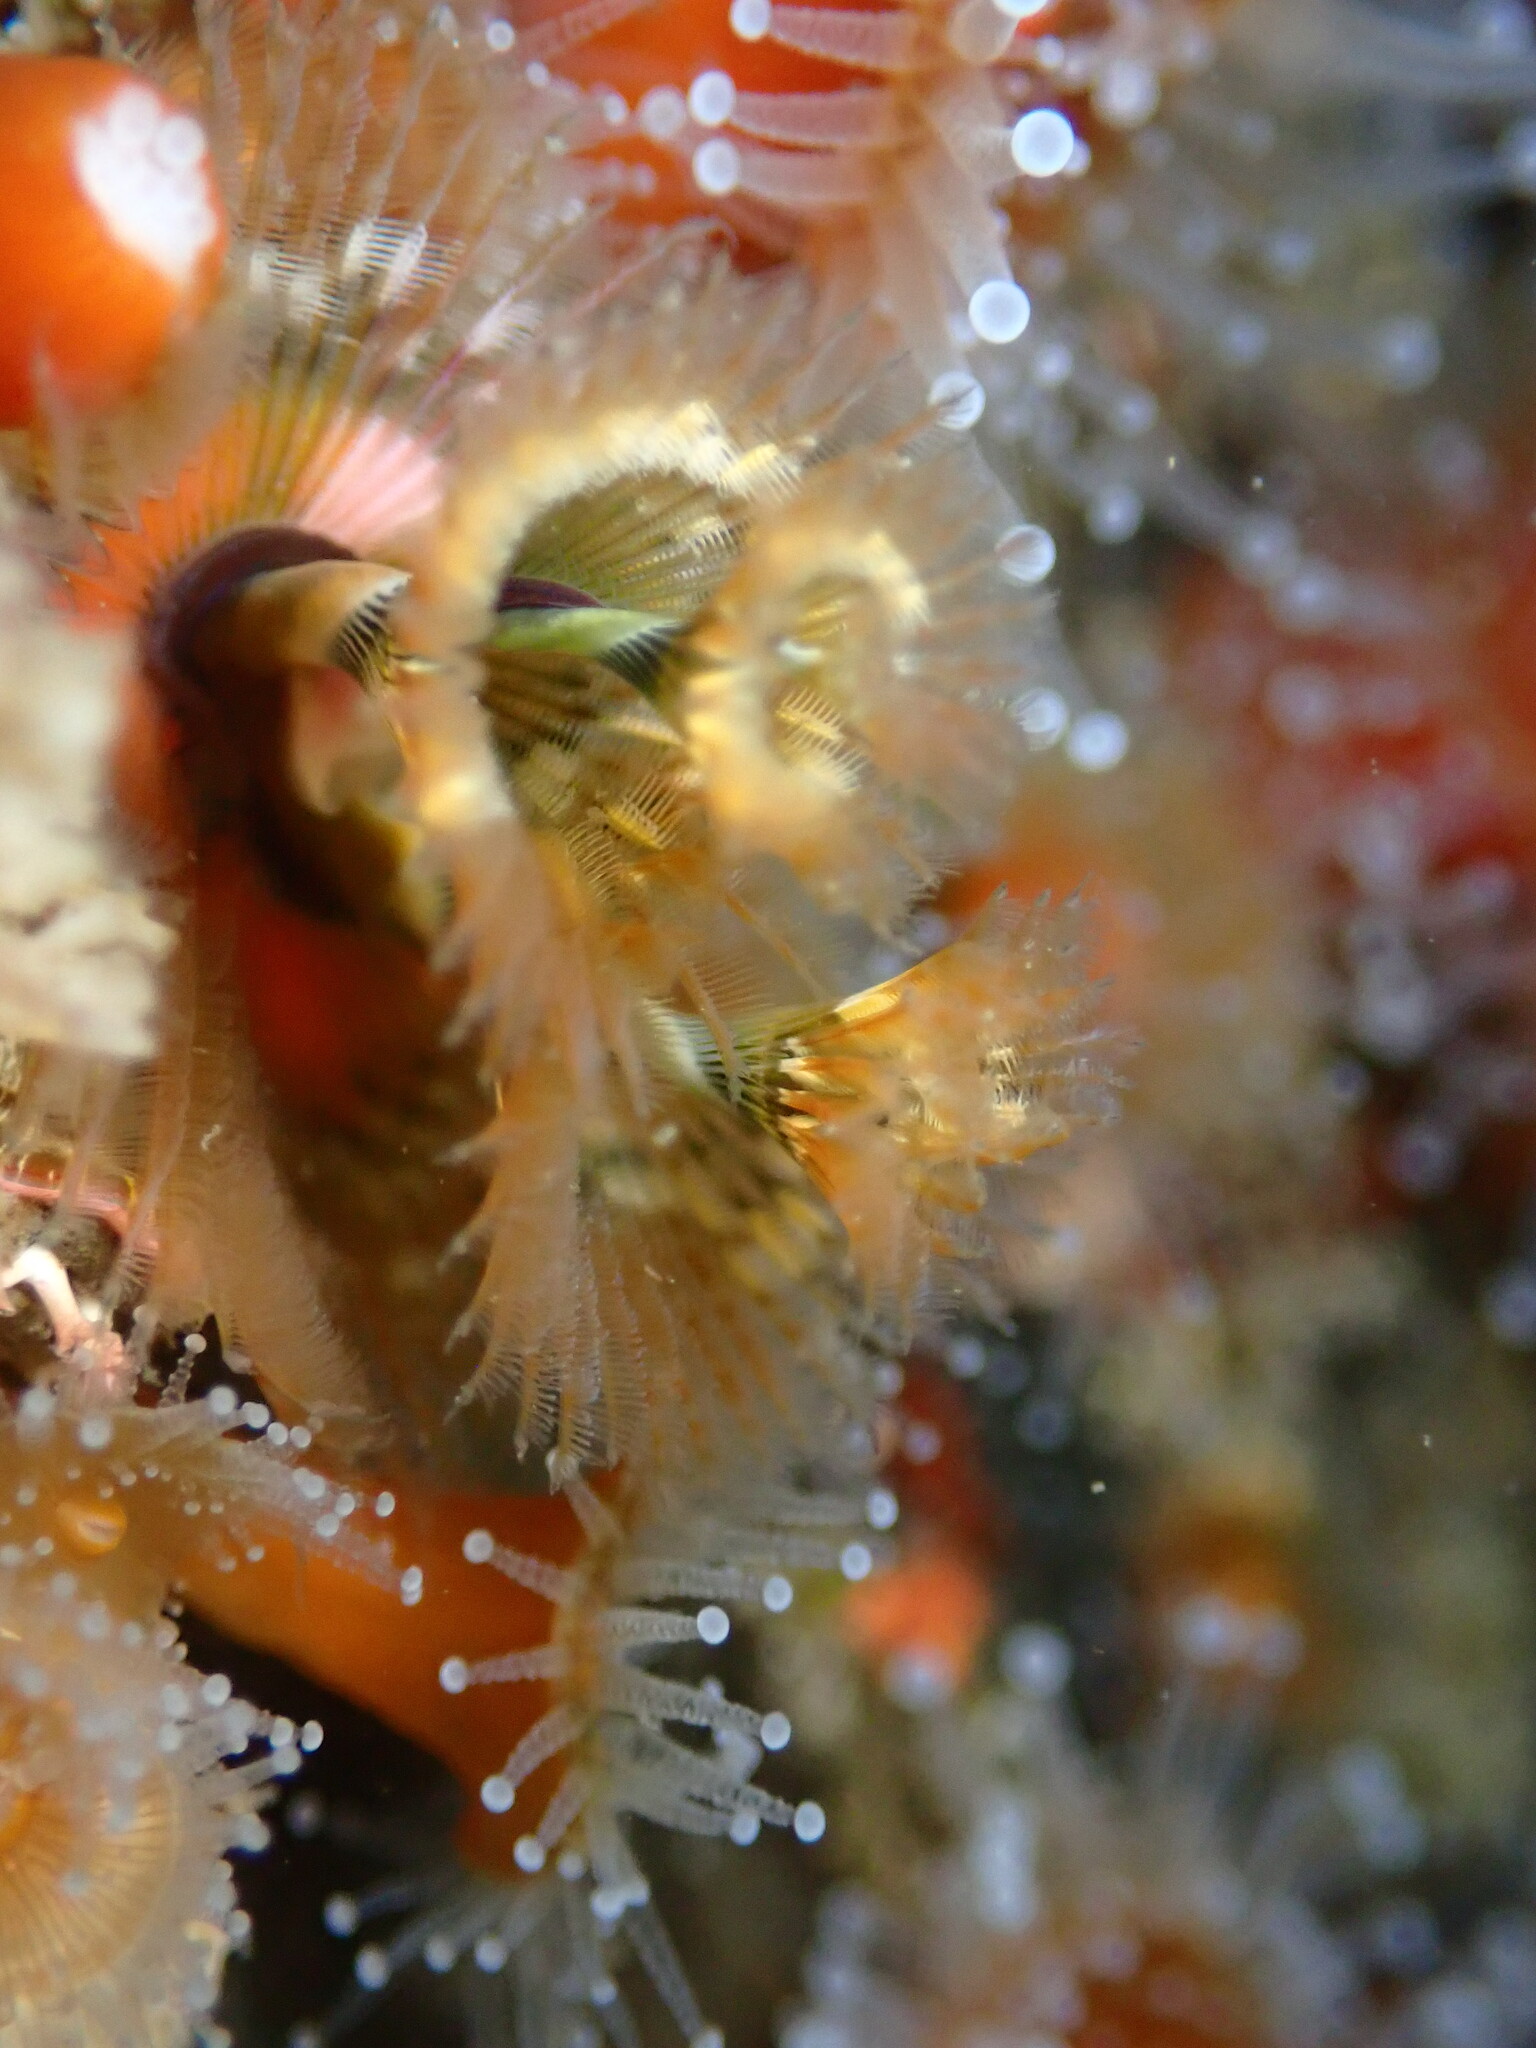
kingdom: Animalia
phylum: Annelida
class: Polychaeta
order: Sabellida
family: Serpulidae
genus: Spirobranchus
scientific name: Spirobranchus spinosus
